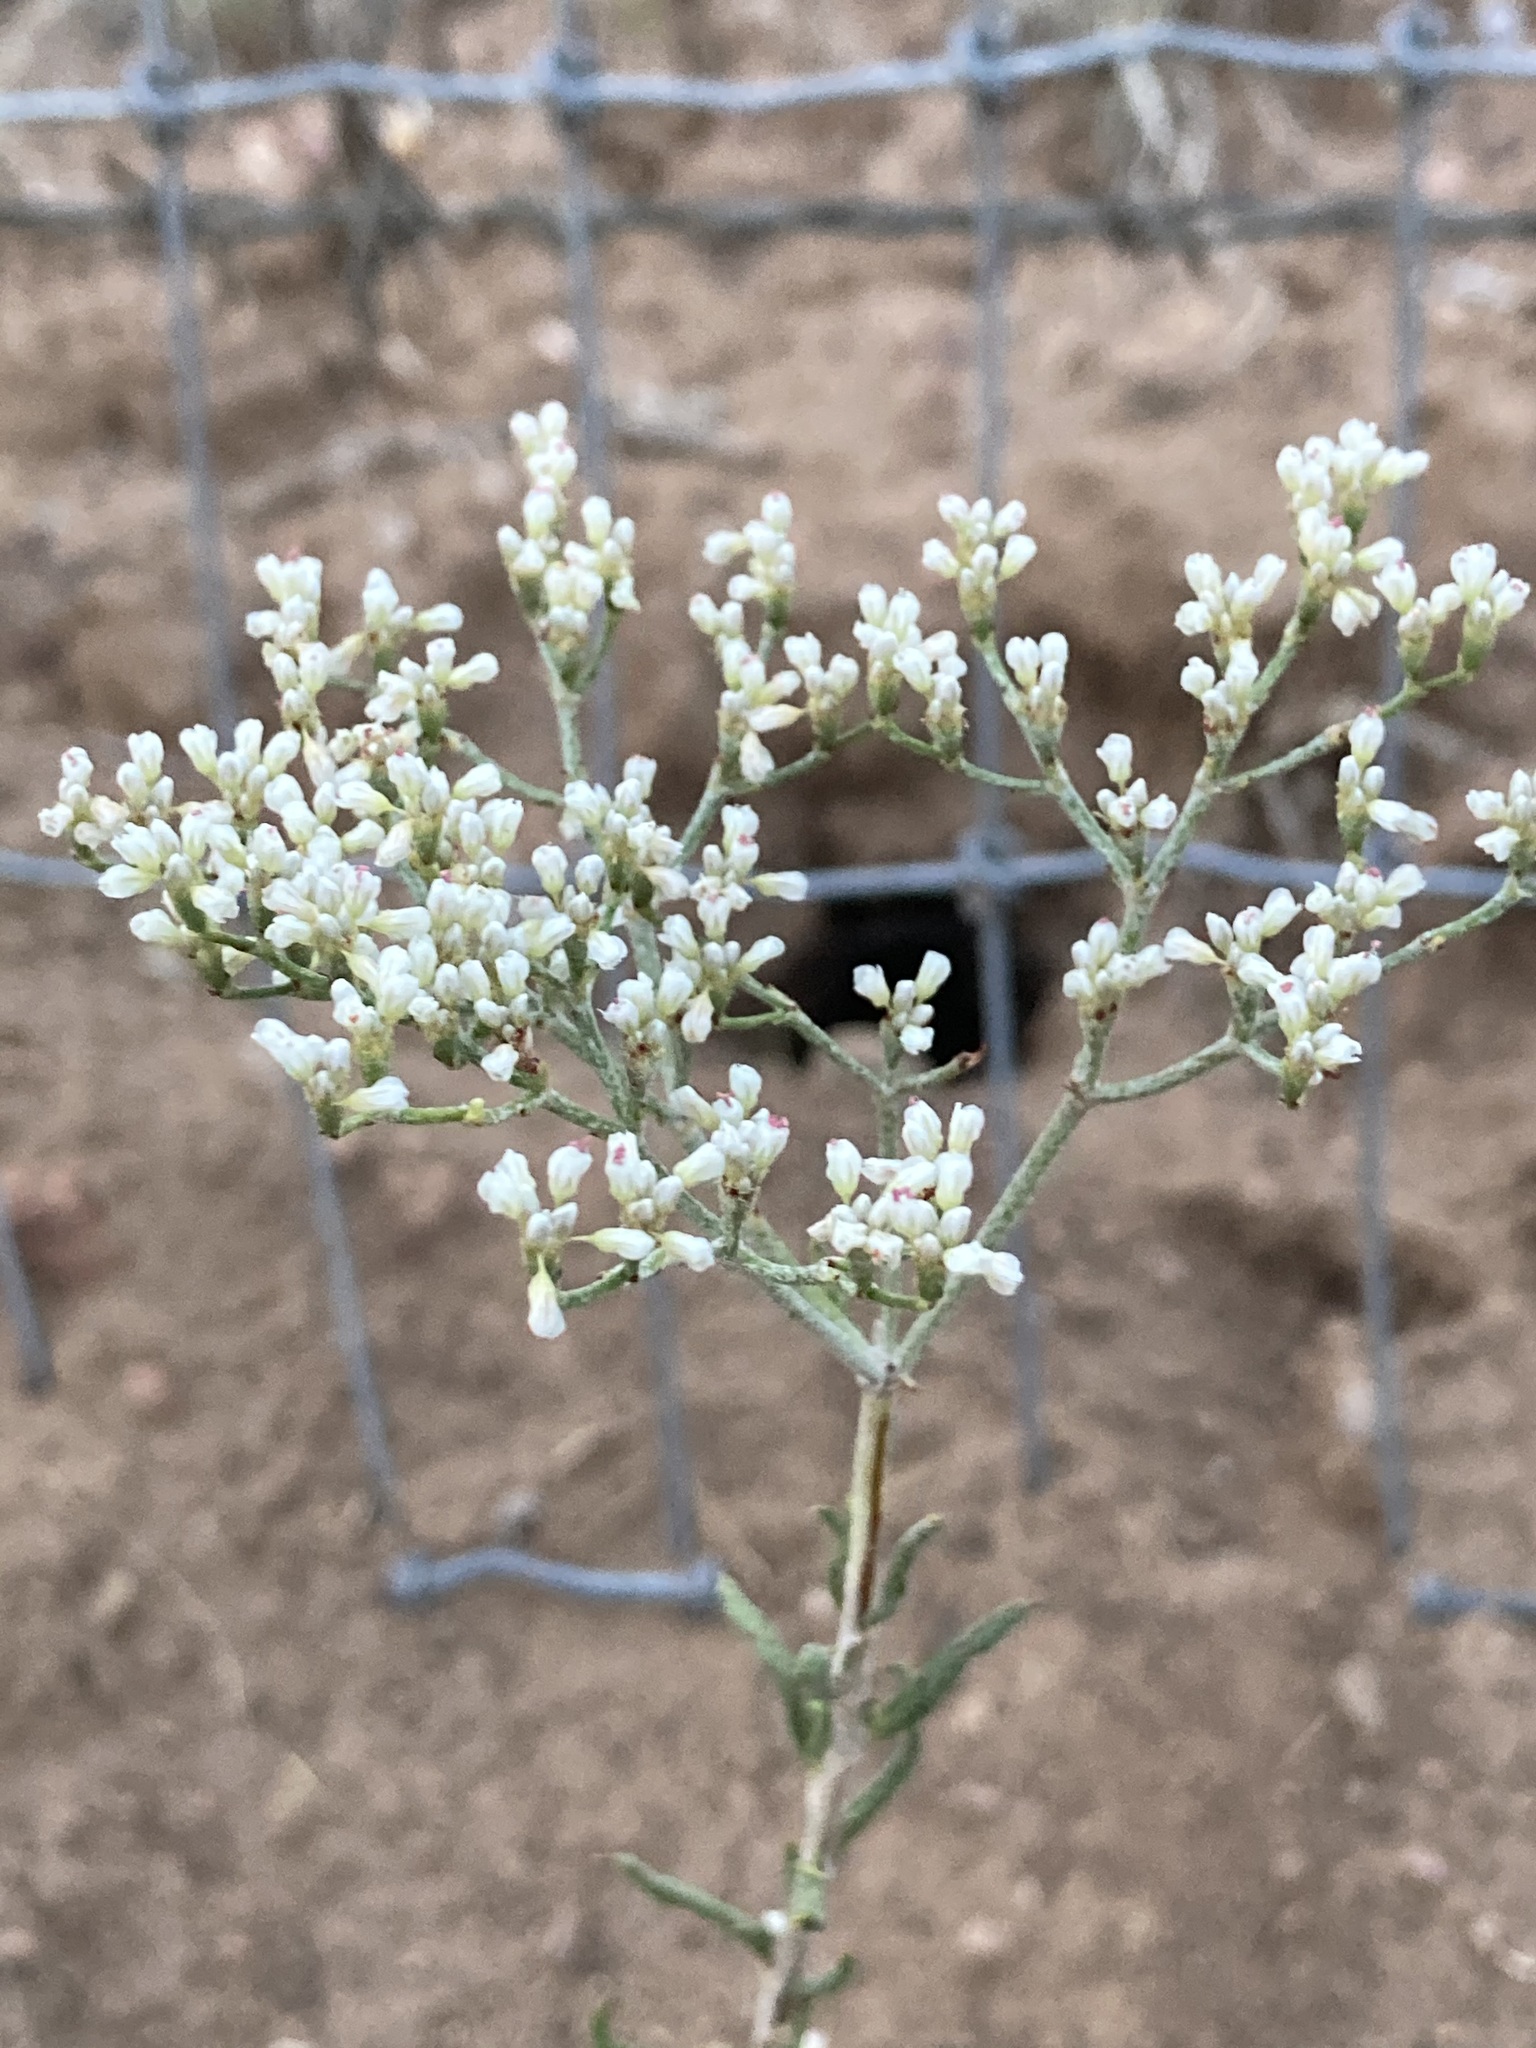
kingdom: Plantae
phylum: Tracheophyta
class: Magnoliopsida
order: Caryophyllales
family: Polygonaceae
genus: Eriogonum
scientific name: Eriogonum microtheca
